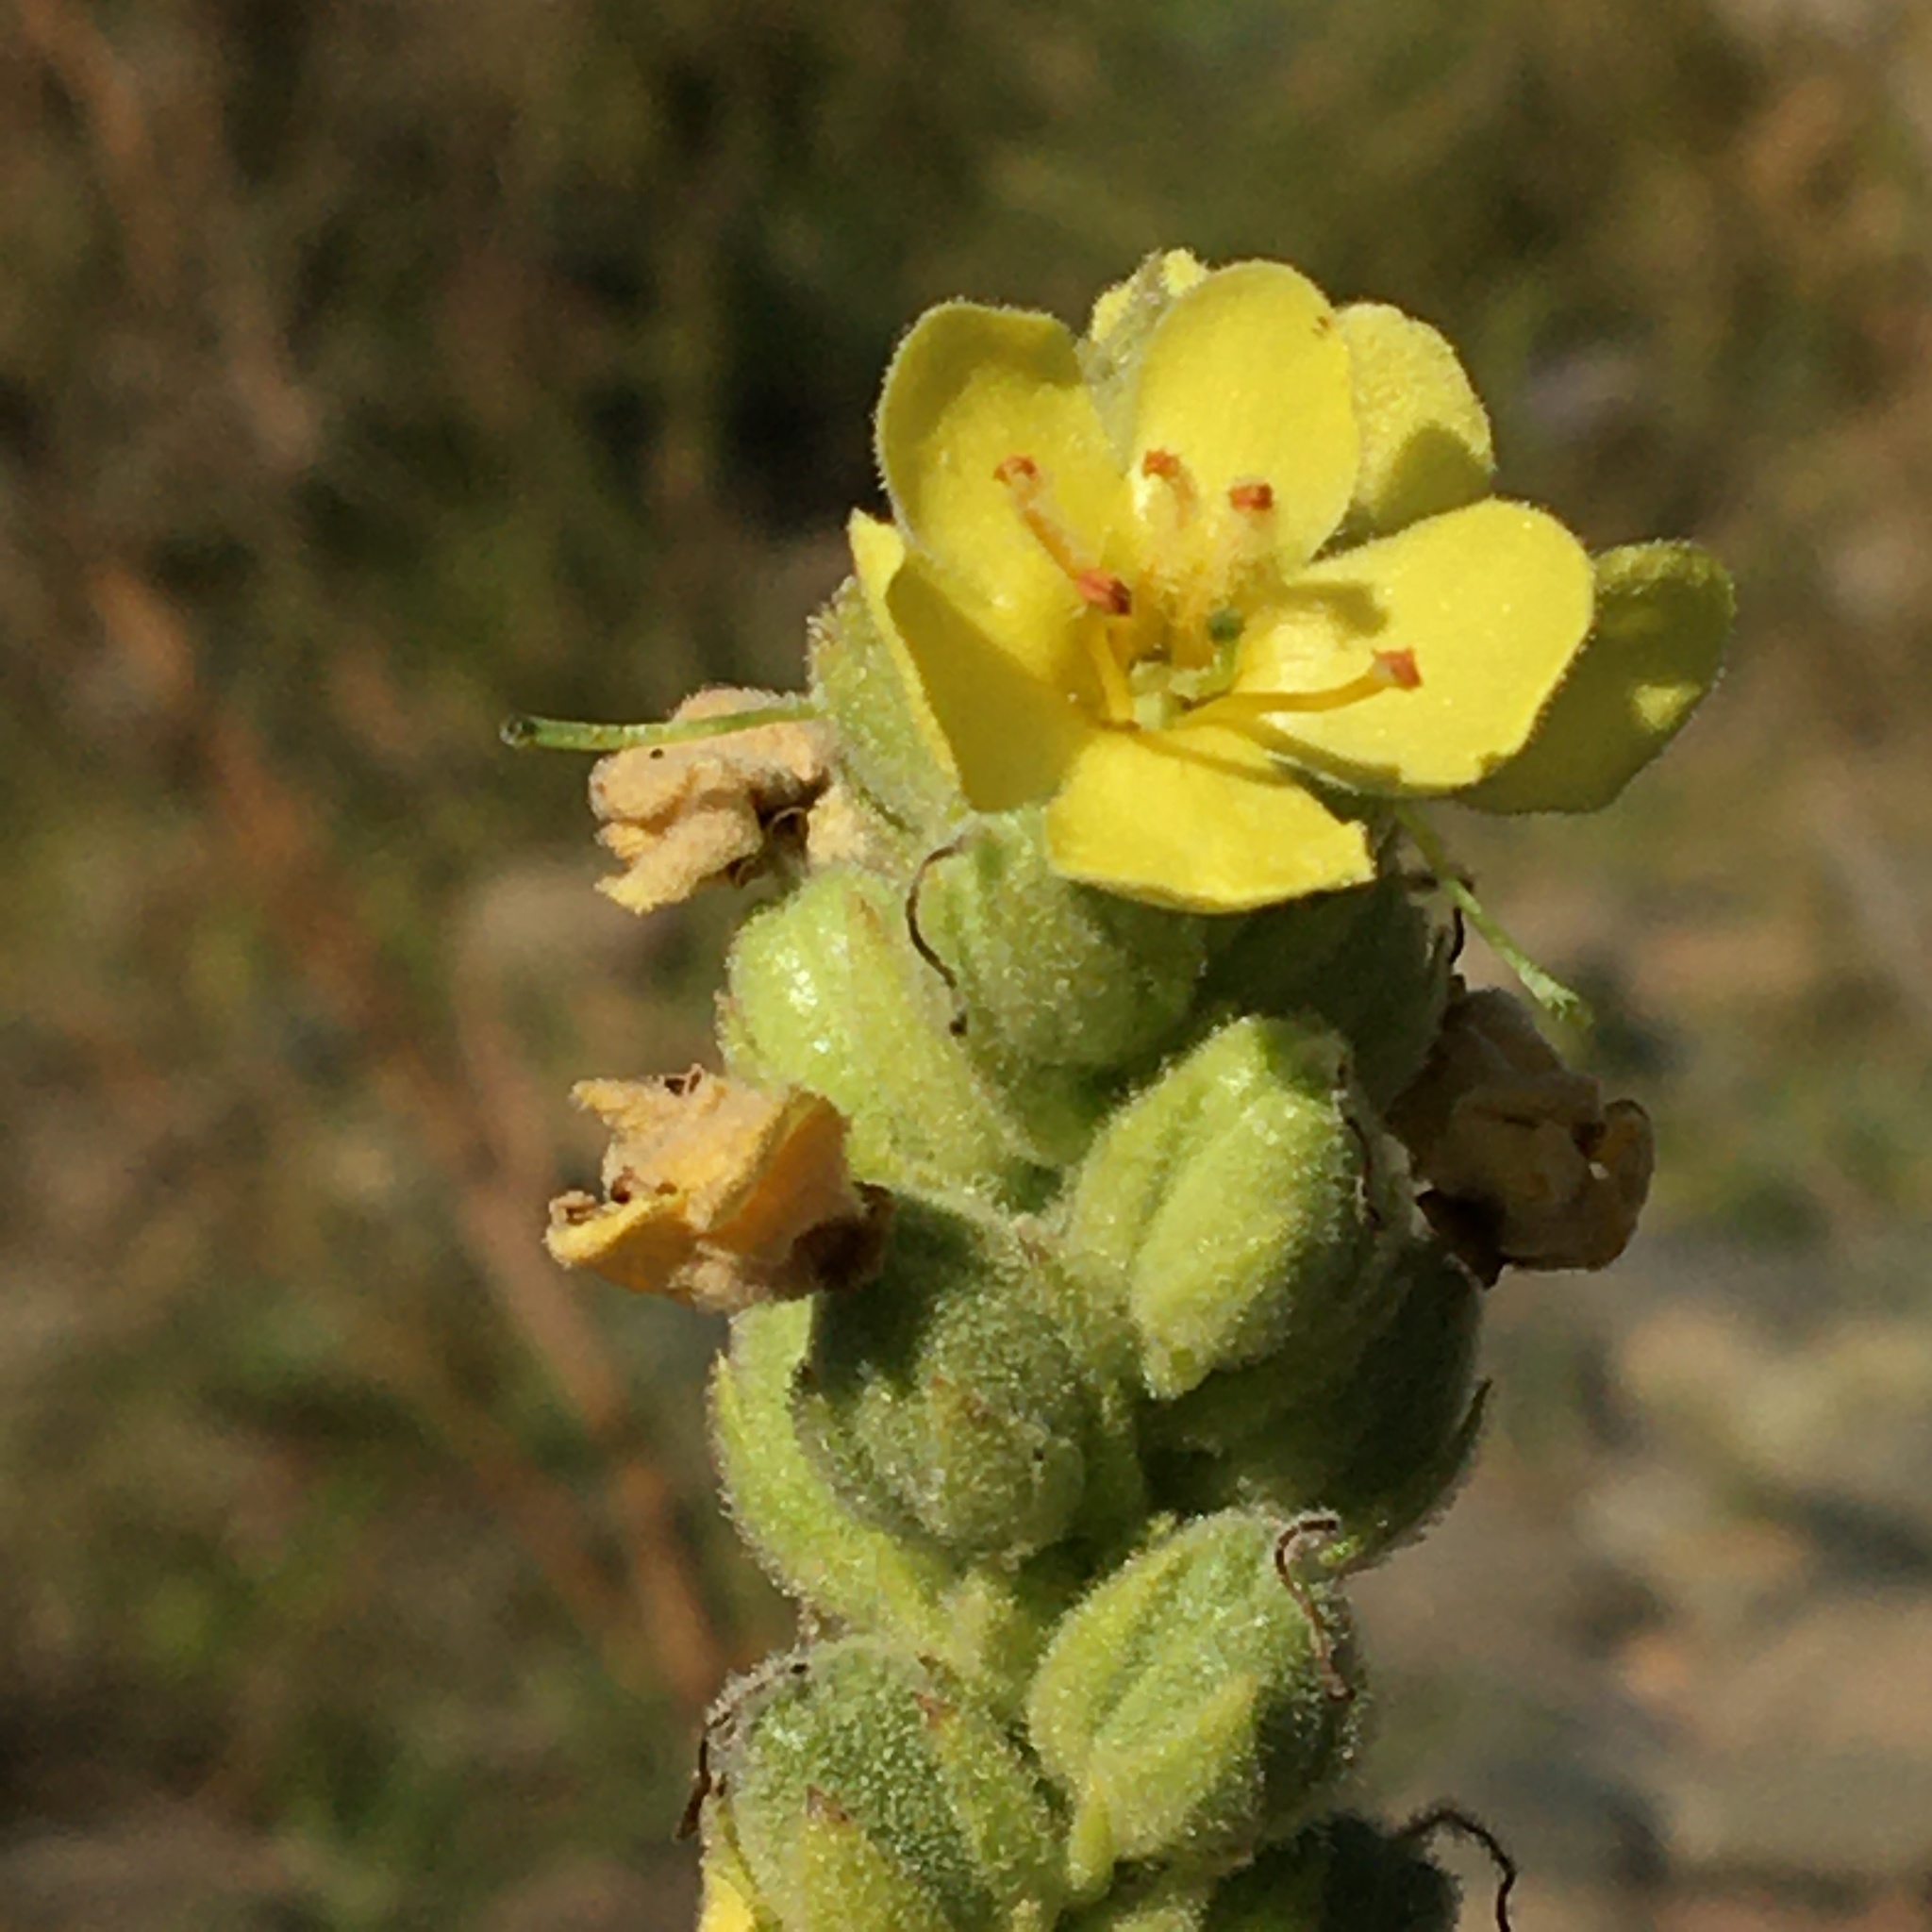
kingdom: Plantae
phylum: Tracheophyta
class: Magnoliopsida
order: Lamiales
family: Scrophulariaceae
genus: Verbascum
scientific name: Verbascum thapsus
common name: Common mullein
